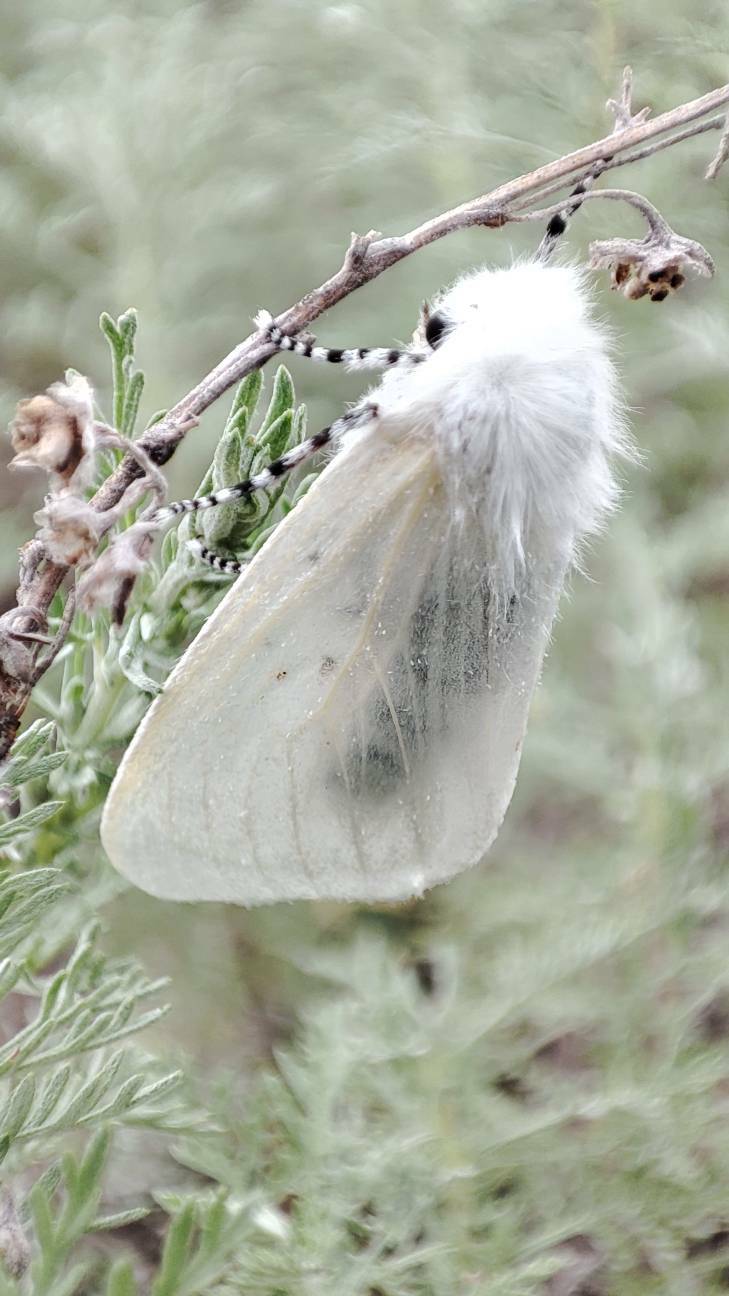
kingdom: Animalia
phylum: Arthropoda
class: Insecta
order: Lepidoptera
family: Erebidae
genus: Leucoma
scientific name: Leucoma salicis
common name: White satin moth
